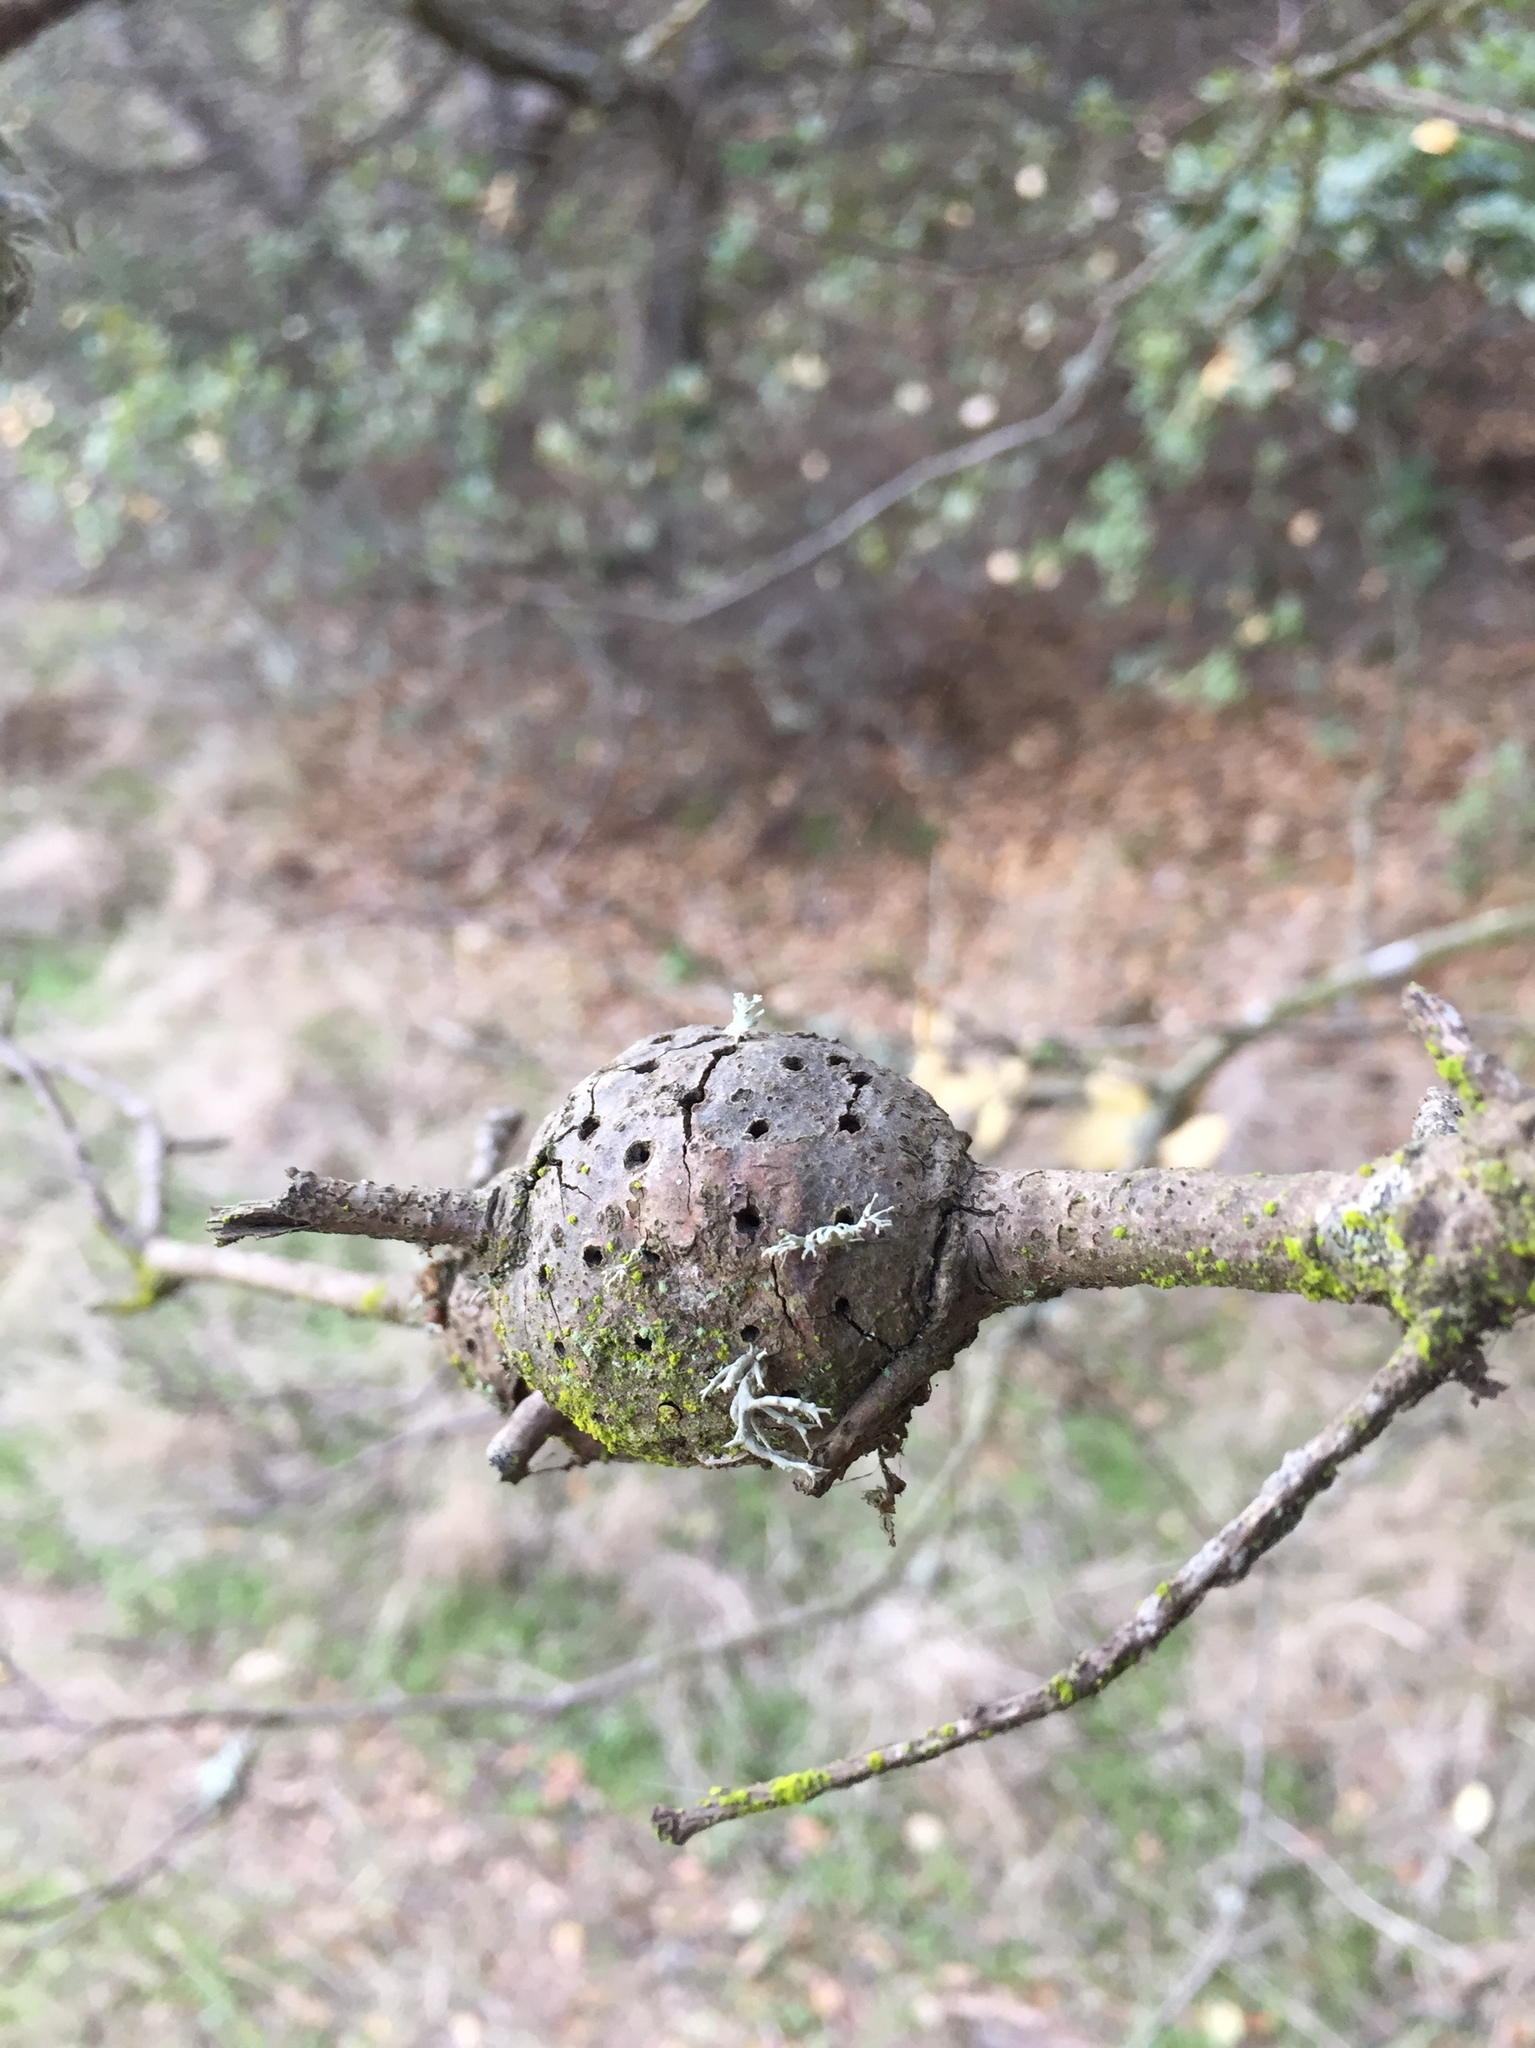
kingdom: Animalia
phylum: Arthropoda
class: Insecta
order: Hymenoptera
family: Cynipidae
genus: Callirhytis
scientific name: Callirhytis
